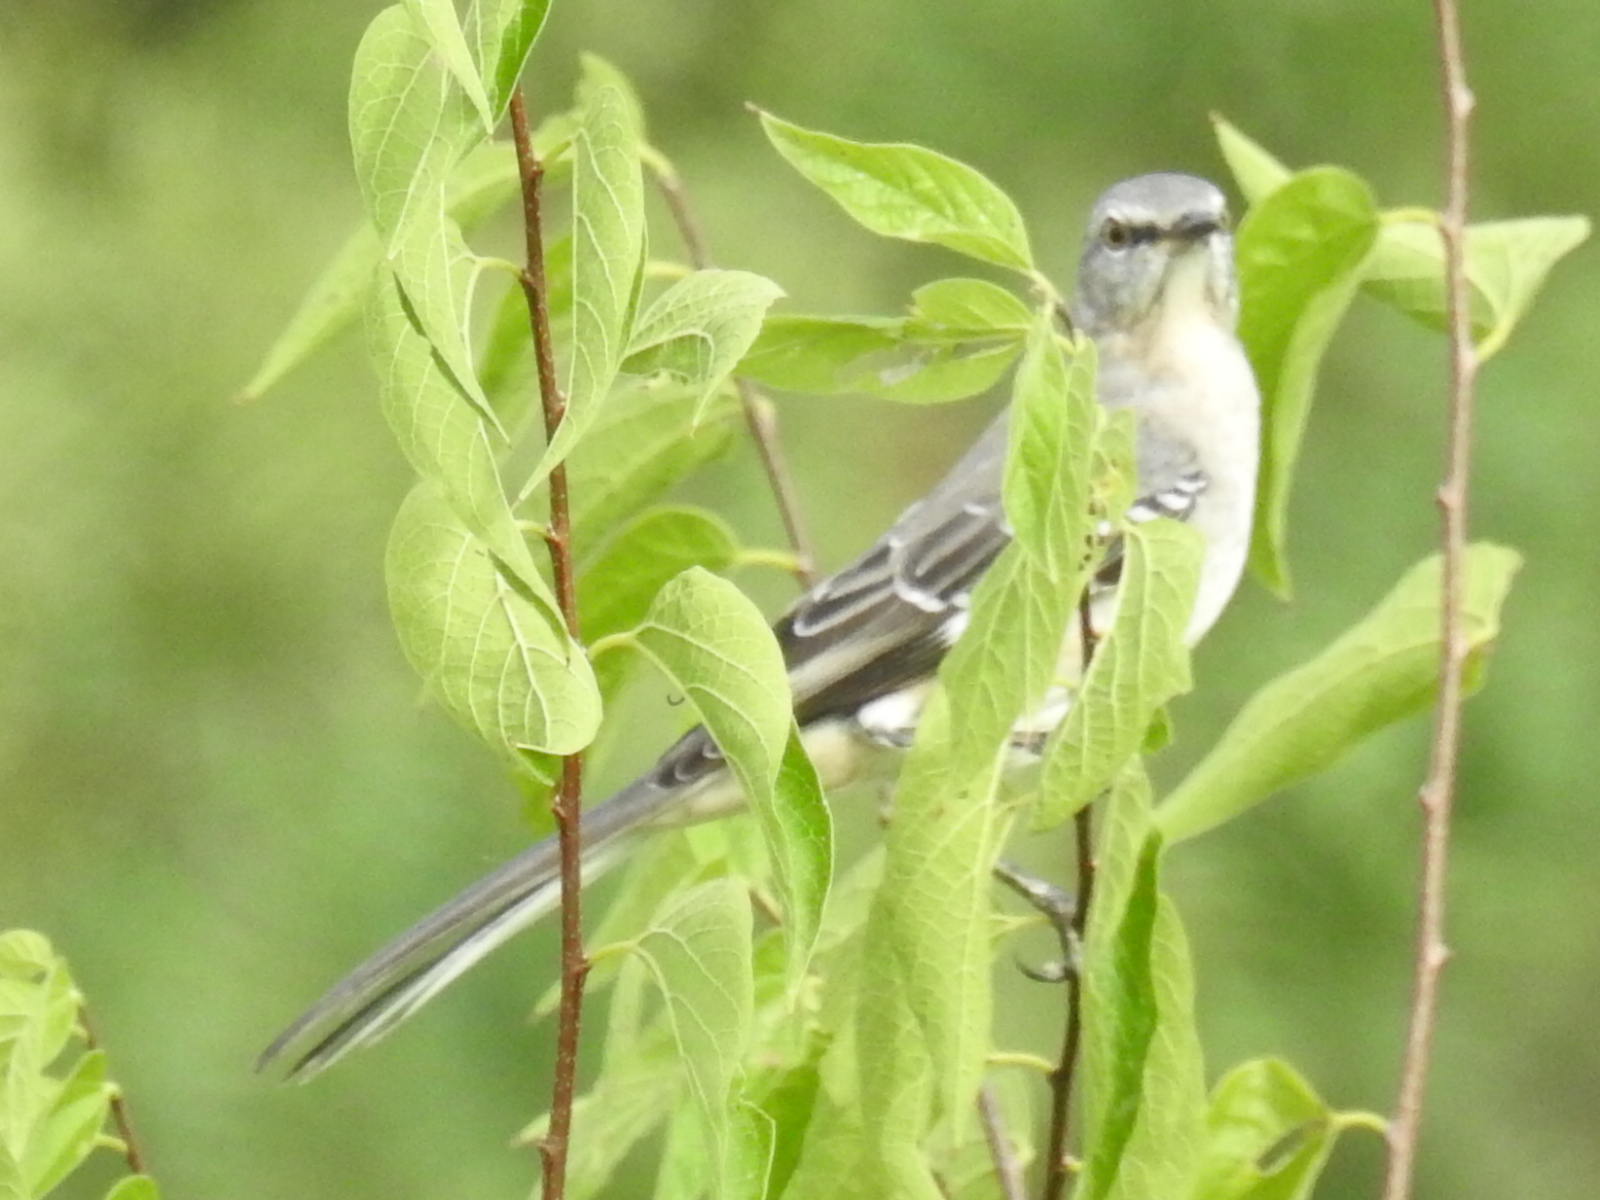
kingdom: Animalia
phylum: Chordata
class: Aves
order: Passeriformes
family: Mimidae
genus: Mimus
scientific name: Mimus polyglottos
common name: Northern mockingbird
